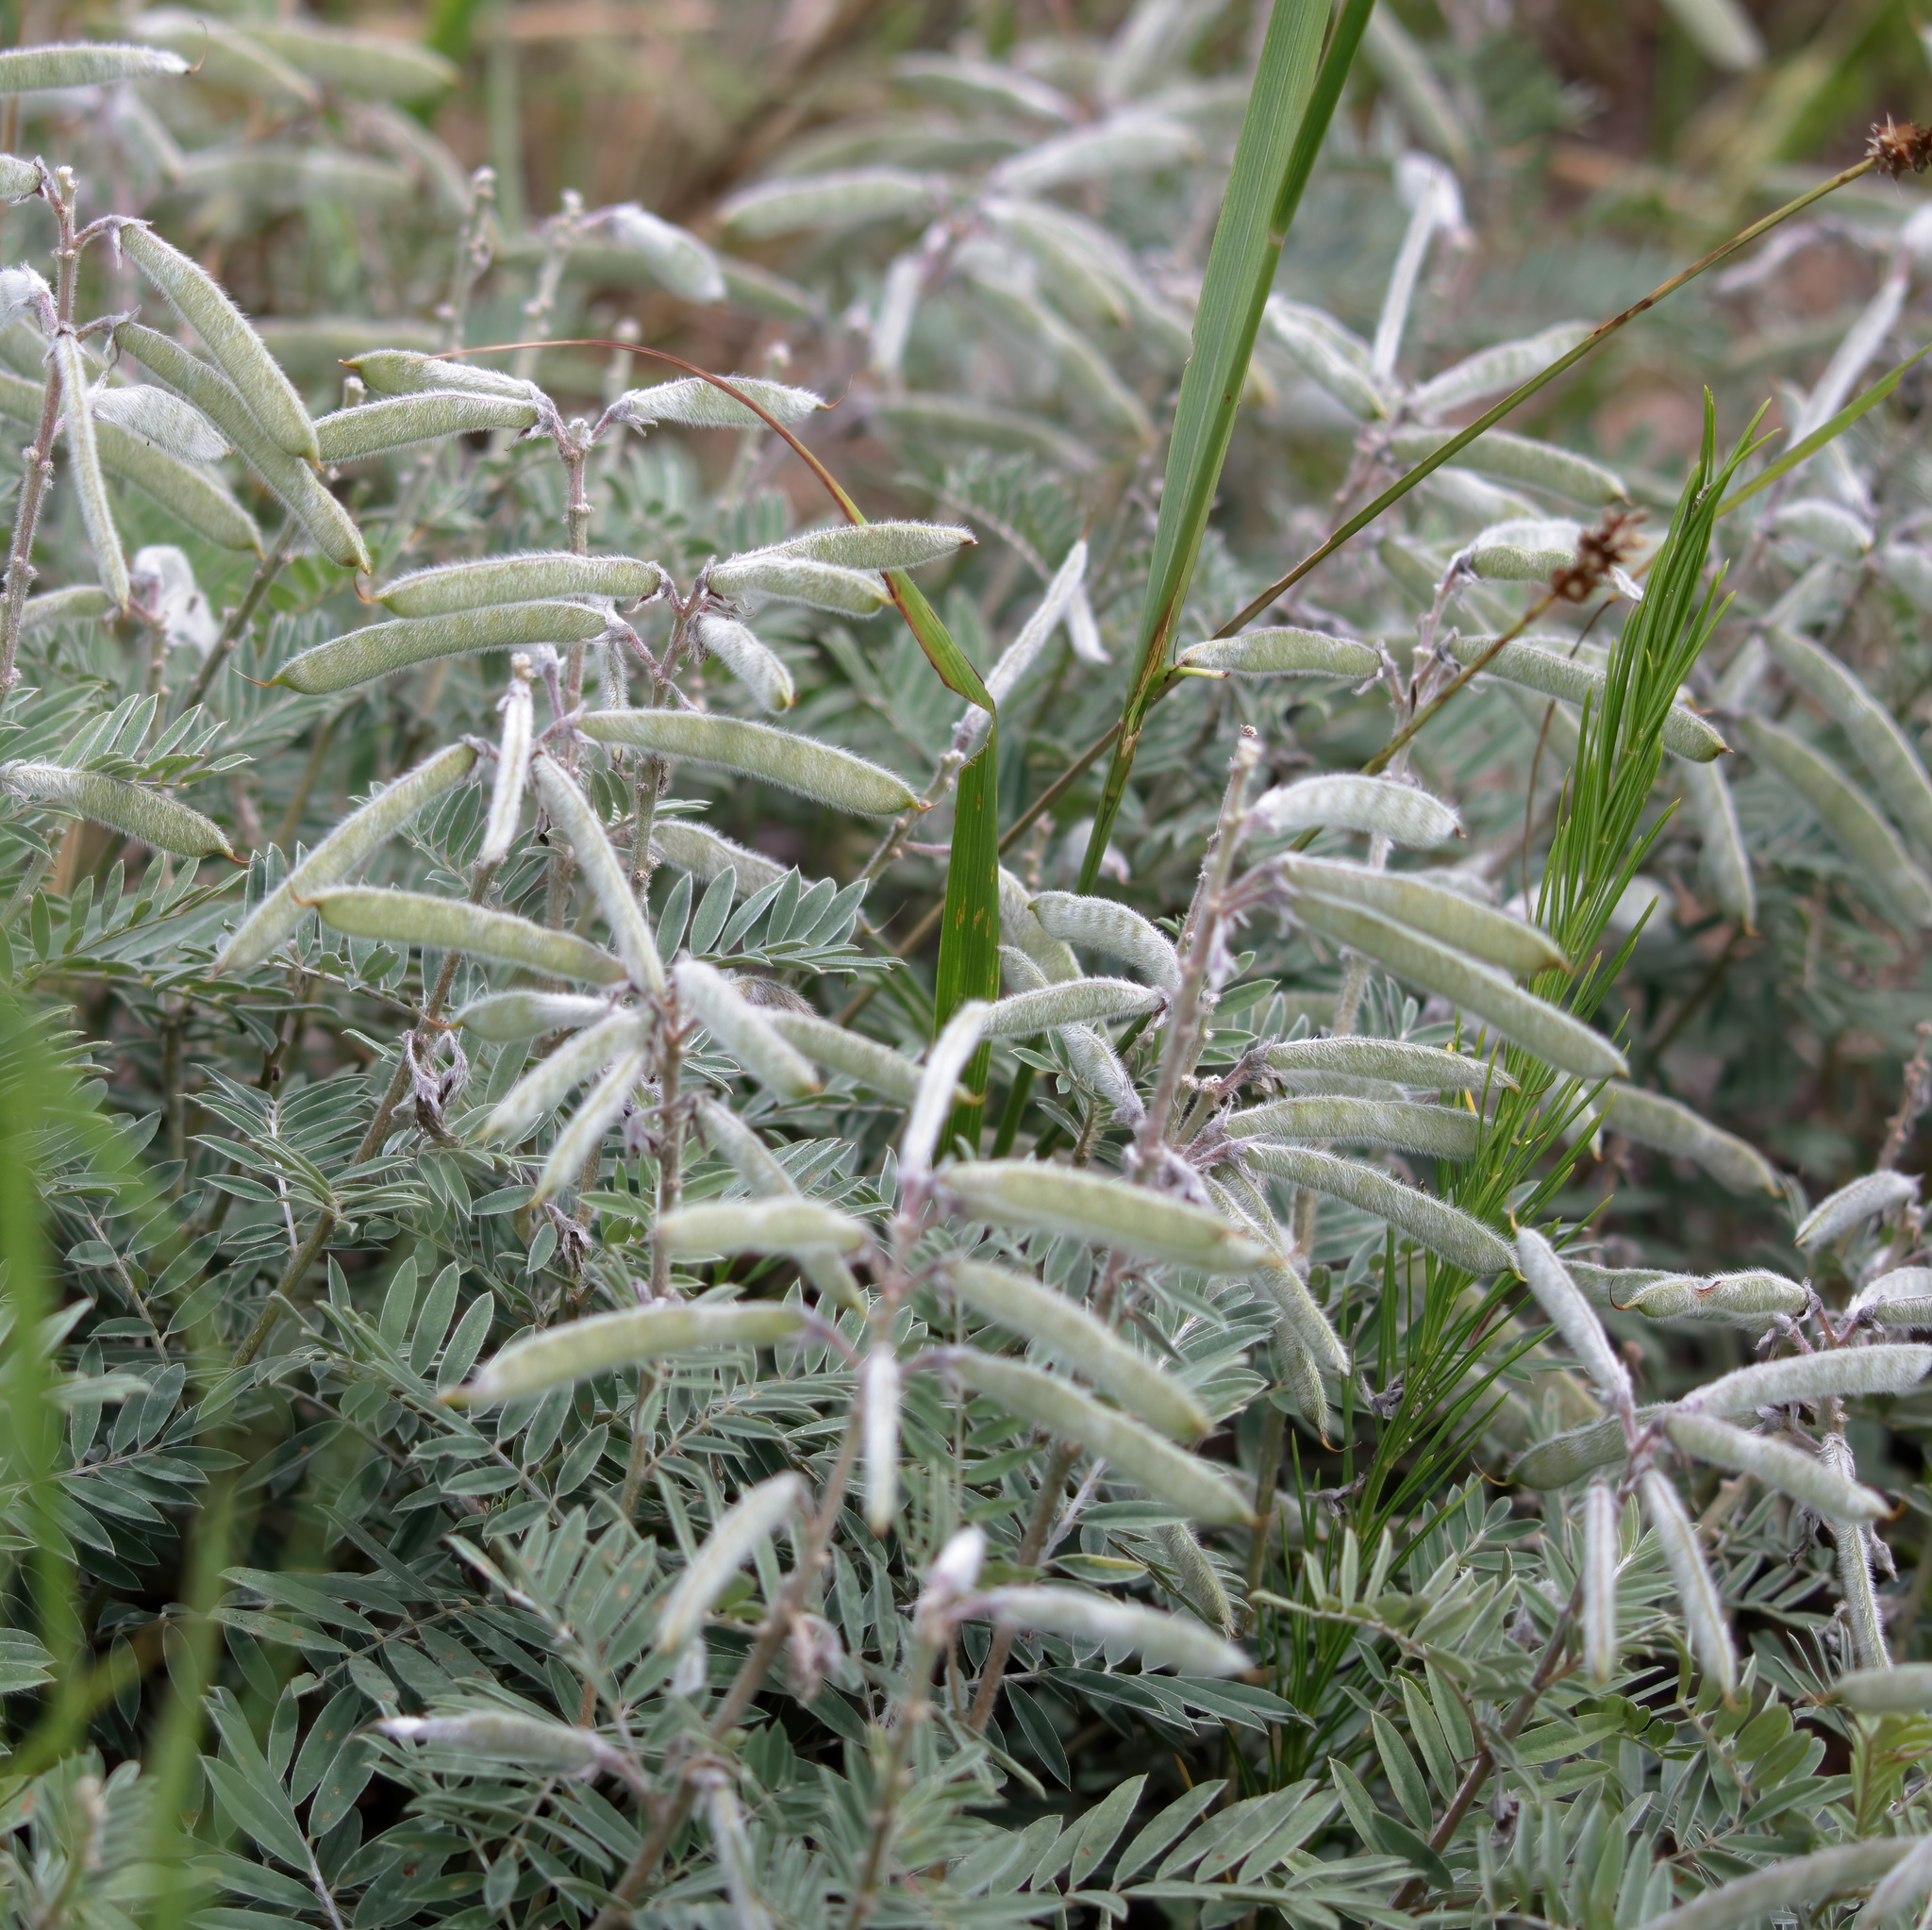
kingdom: Plantae
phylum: Tracheophyta
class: Magnoliopsida
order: Fabales
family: Fabaceae
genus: Tephrosia
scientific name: Tephrosia virginiana
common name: Rabbit-pea
